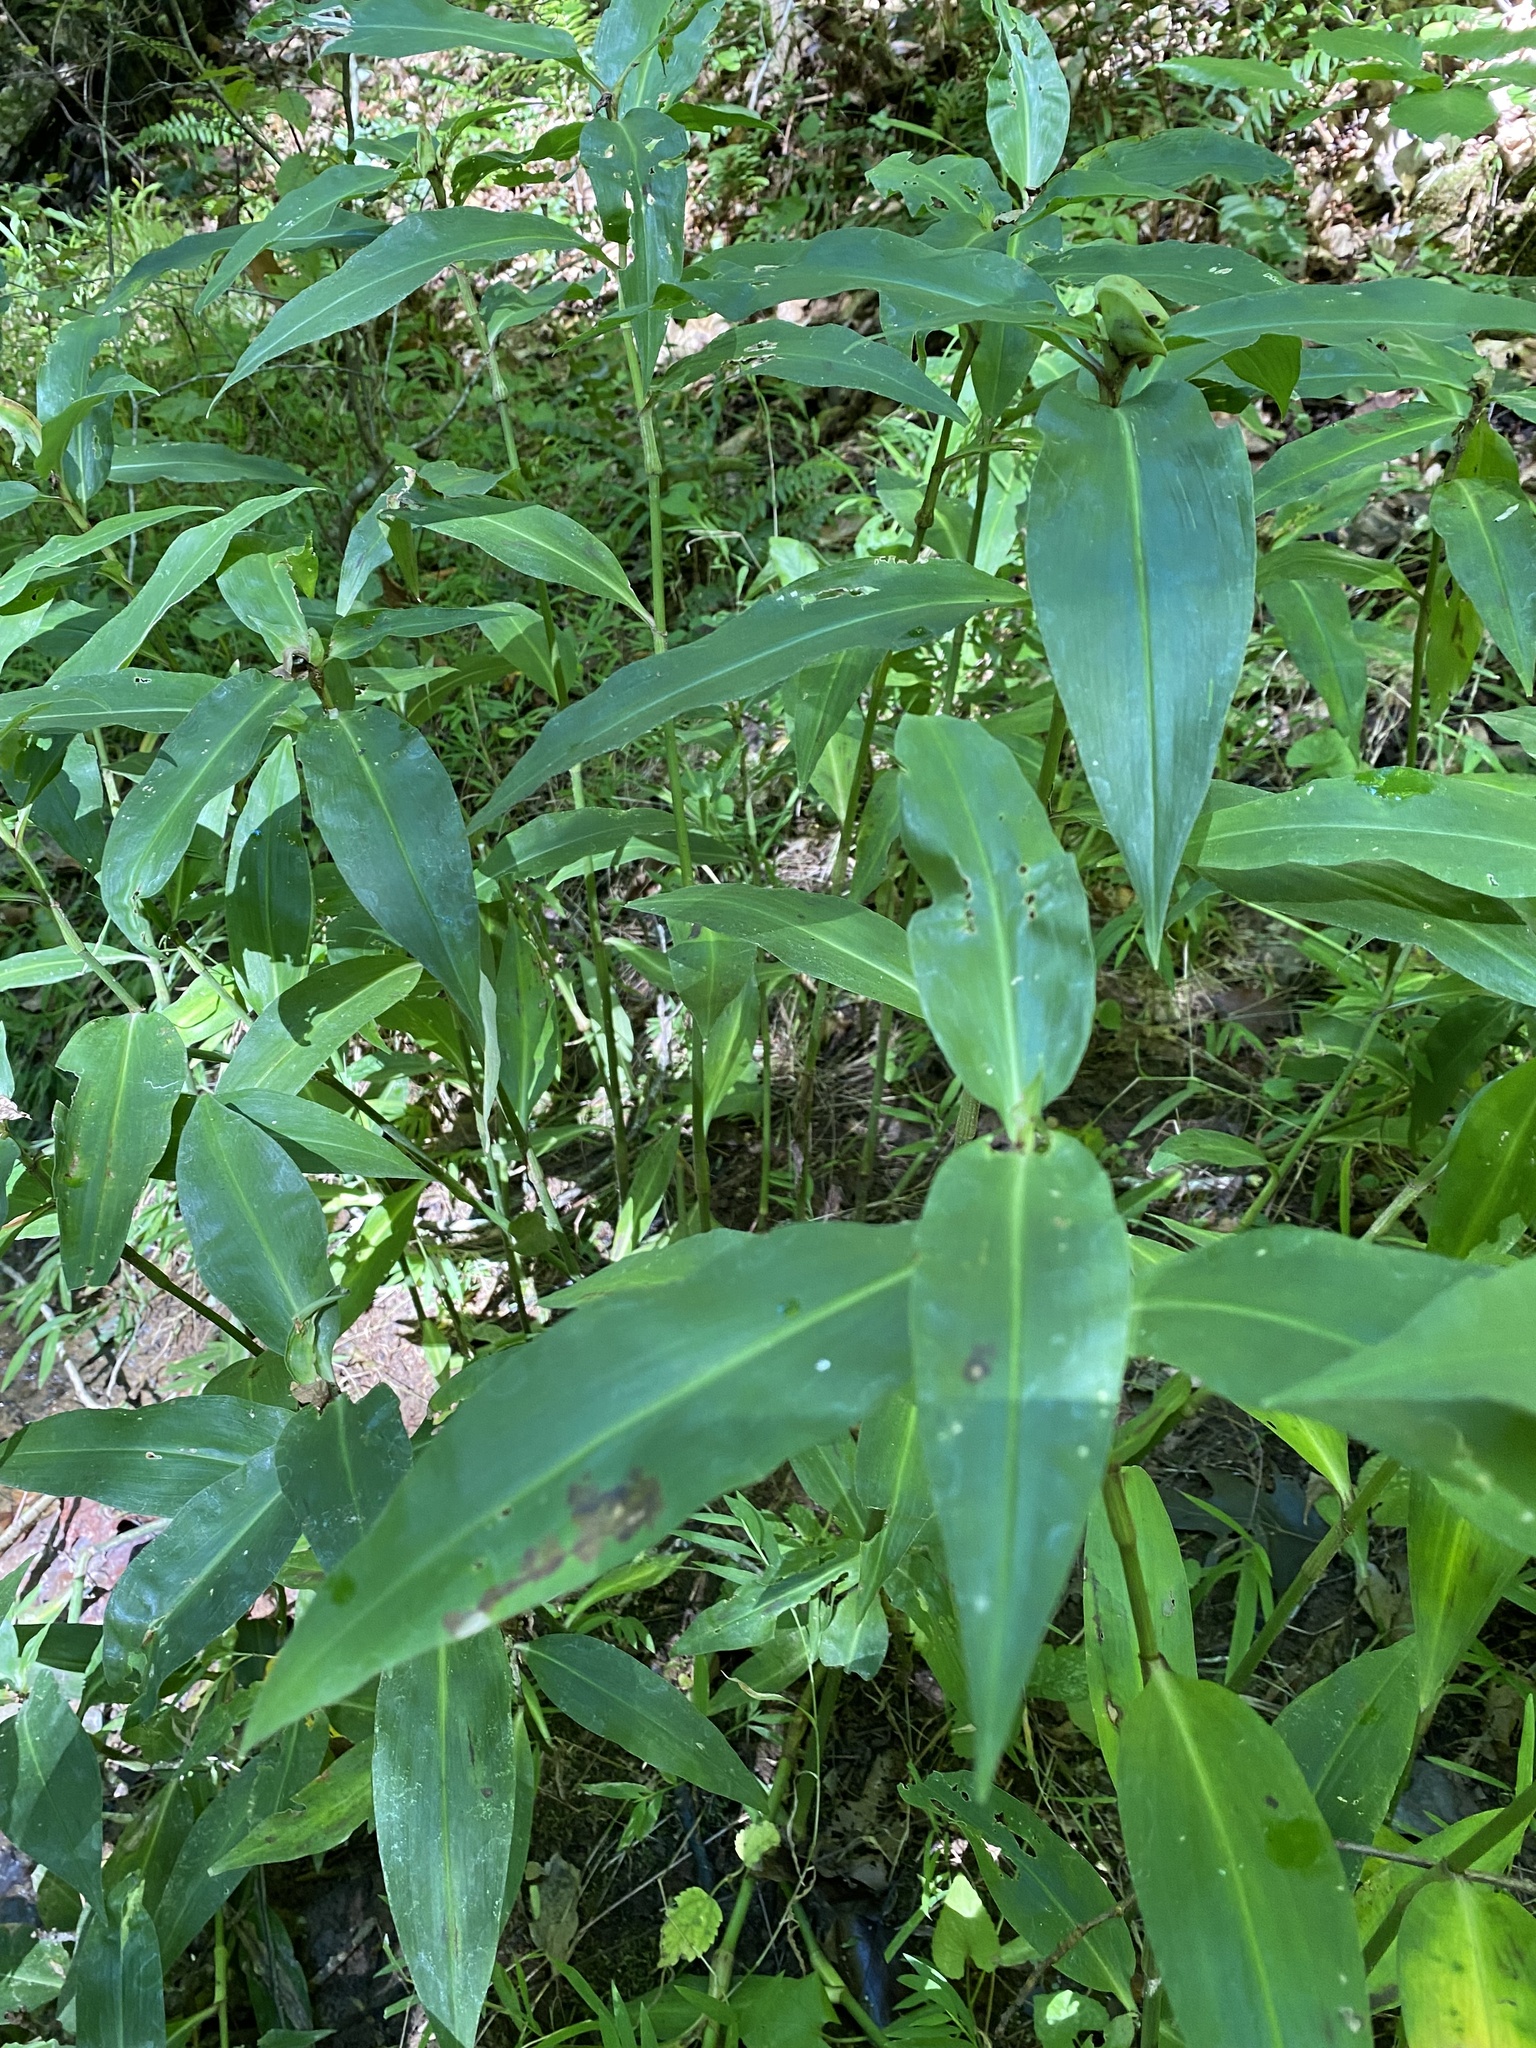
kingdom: Plantae
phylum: Tracheophyta
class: Liliopsida
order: Commelinales
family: Commelinaceae
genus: Commelina
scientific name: Commelina virginica
